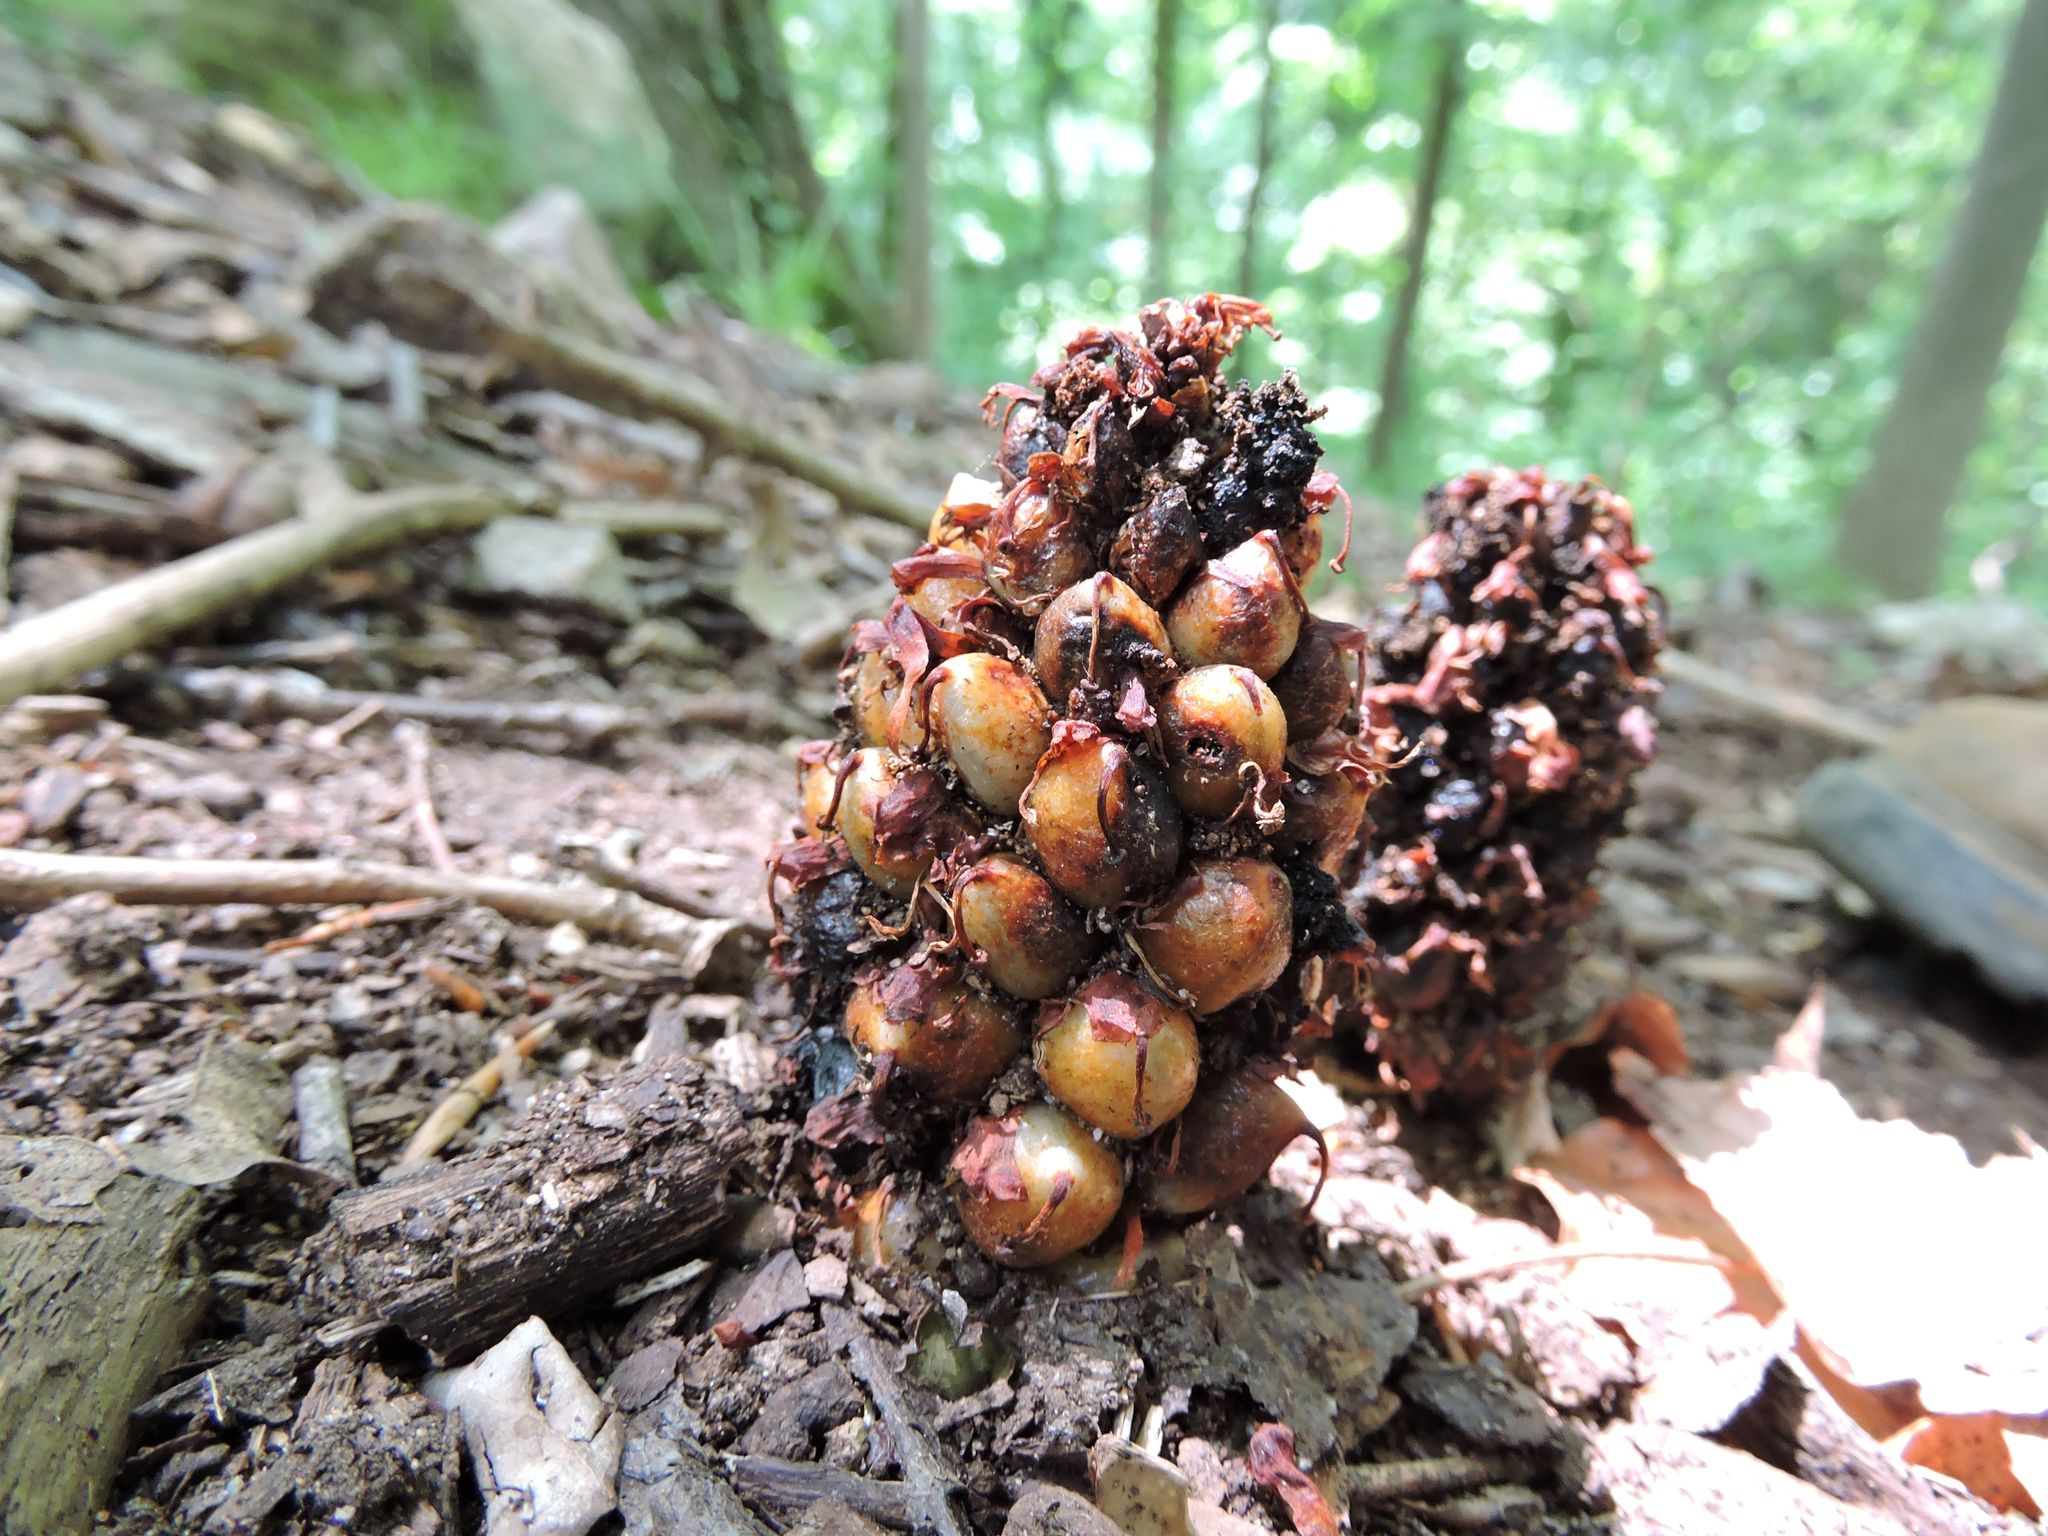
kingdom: Plantae
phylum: Tracheophyta
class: Magnoliopsida
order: Lamiales
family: Orobanchaceae
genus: Conopholis
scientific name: Conopholis americana
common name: American cancer-root
